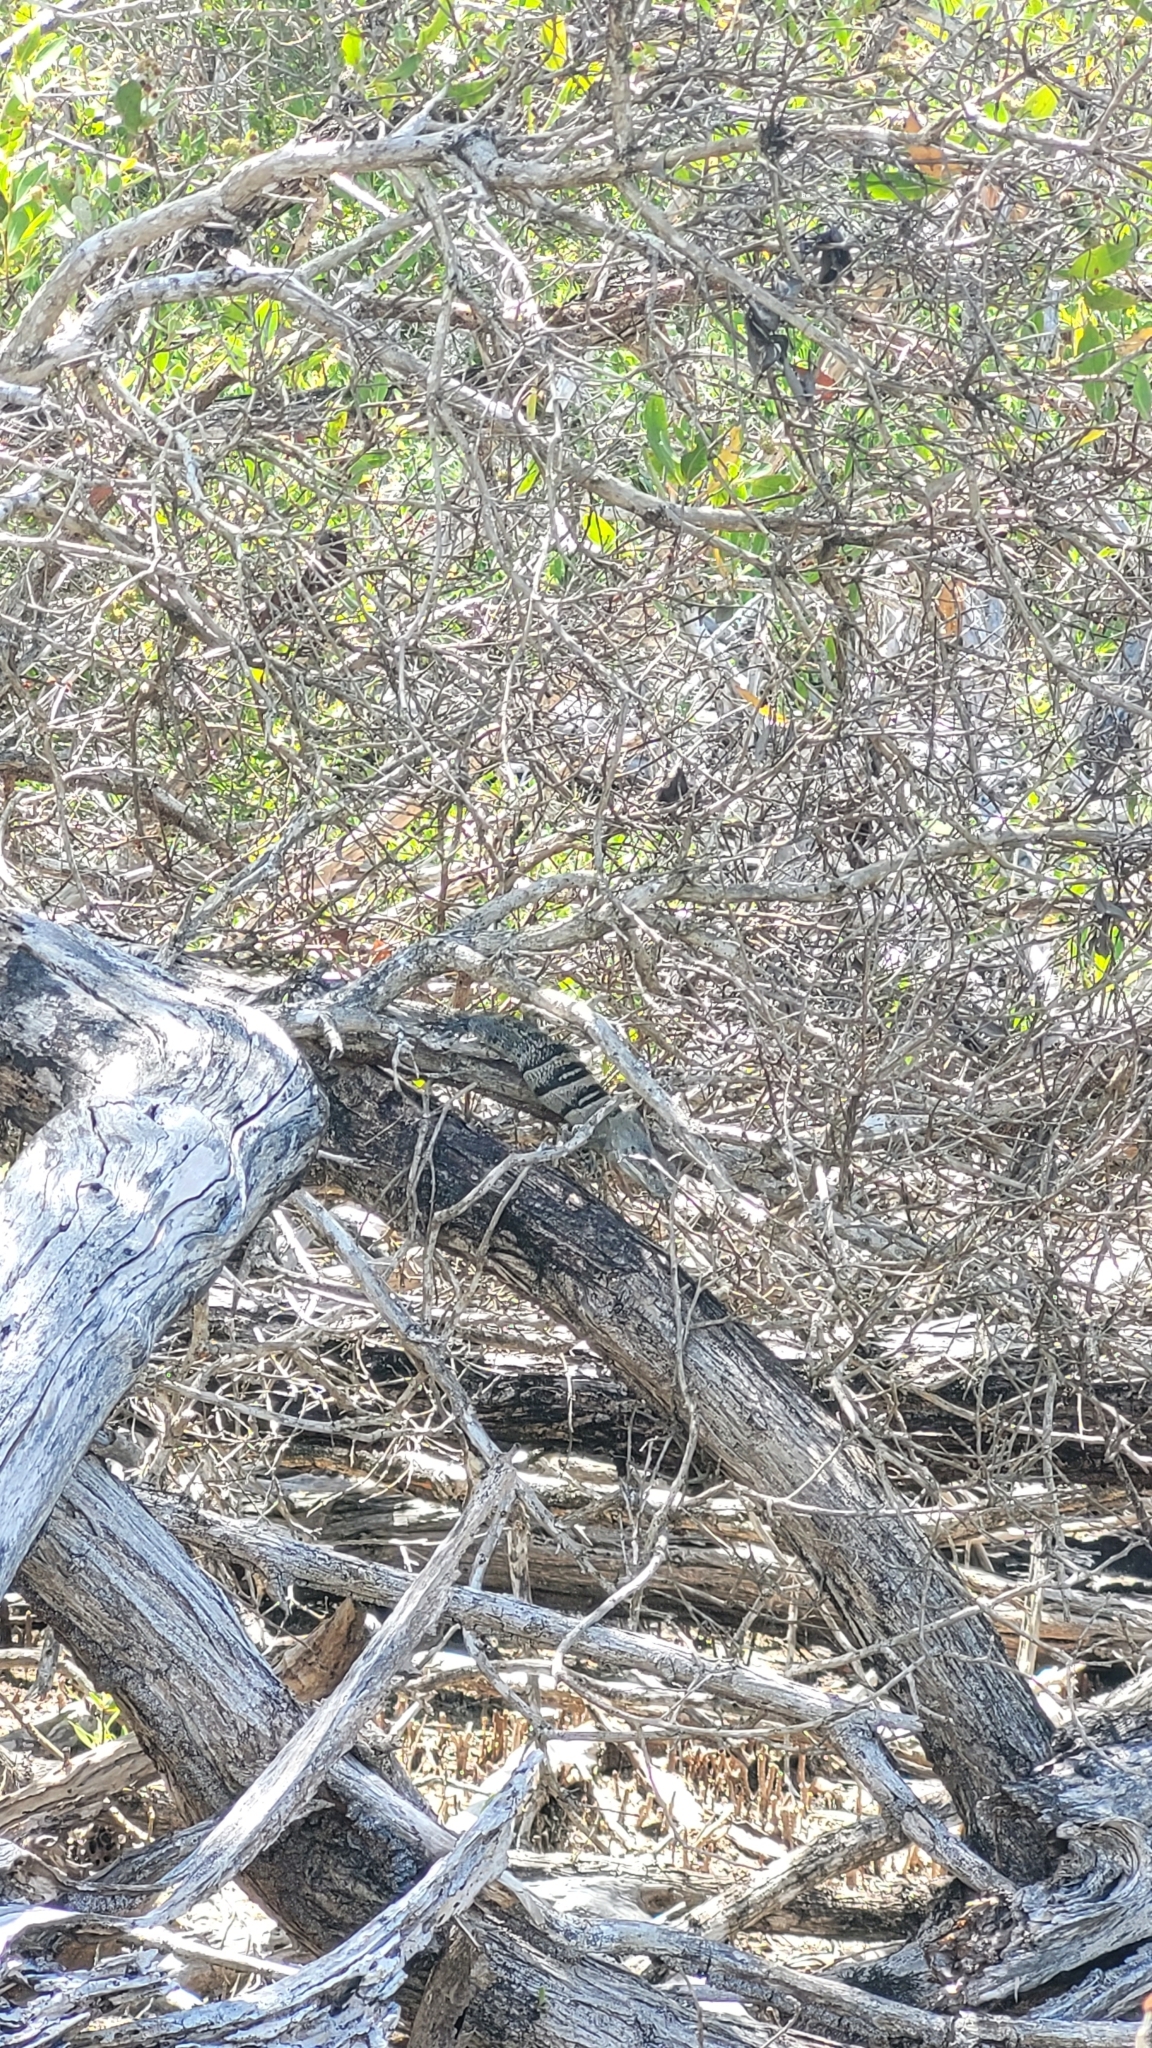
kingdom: Animalia
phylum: Chordata
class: Squamata
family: Iguanidae
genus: Ctenosaura
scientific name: Ctenosaura similis
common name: Black spiny-tailed iguana
